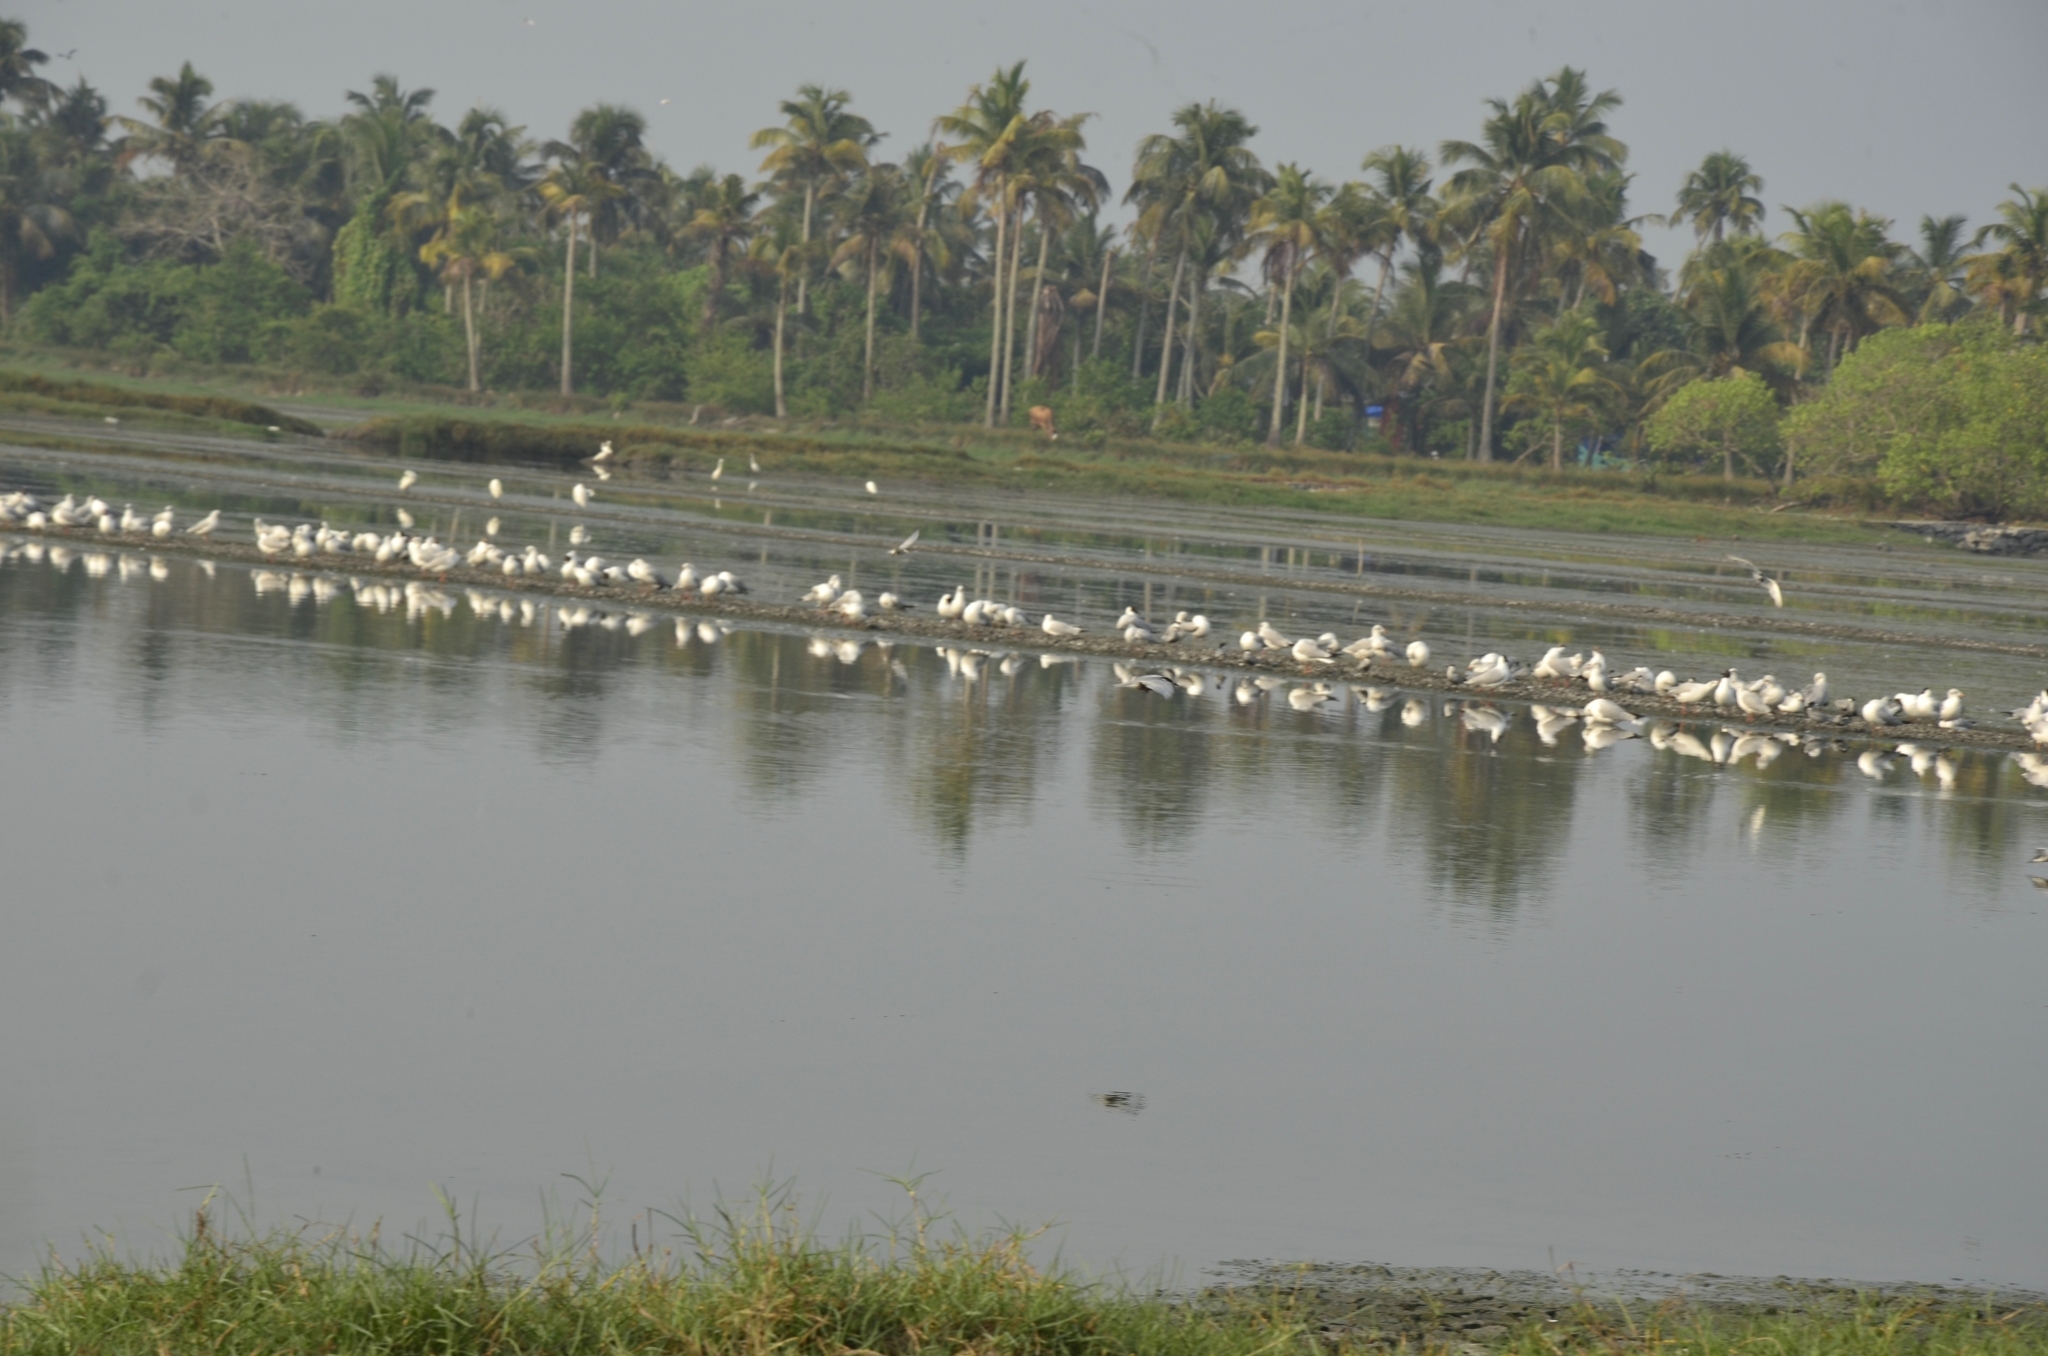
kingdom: Animalia
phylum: Chordata
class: Aves
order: Charadriiformes
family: Laridae
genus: Chroicocephalus
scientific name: Chroicocephalus brunnicephalus
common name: Brown-headed gull
